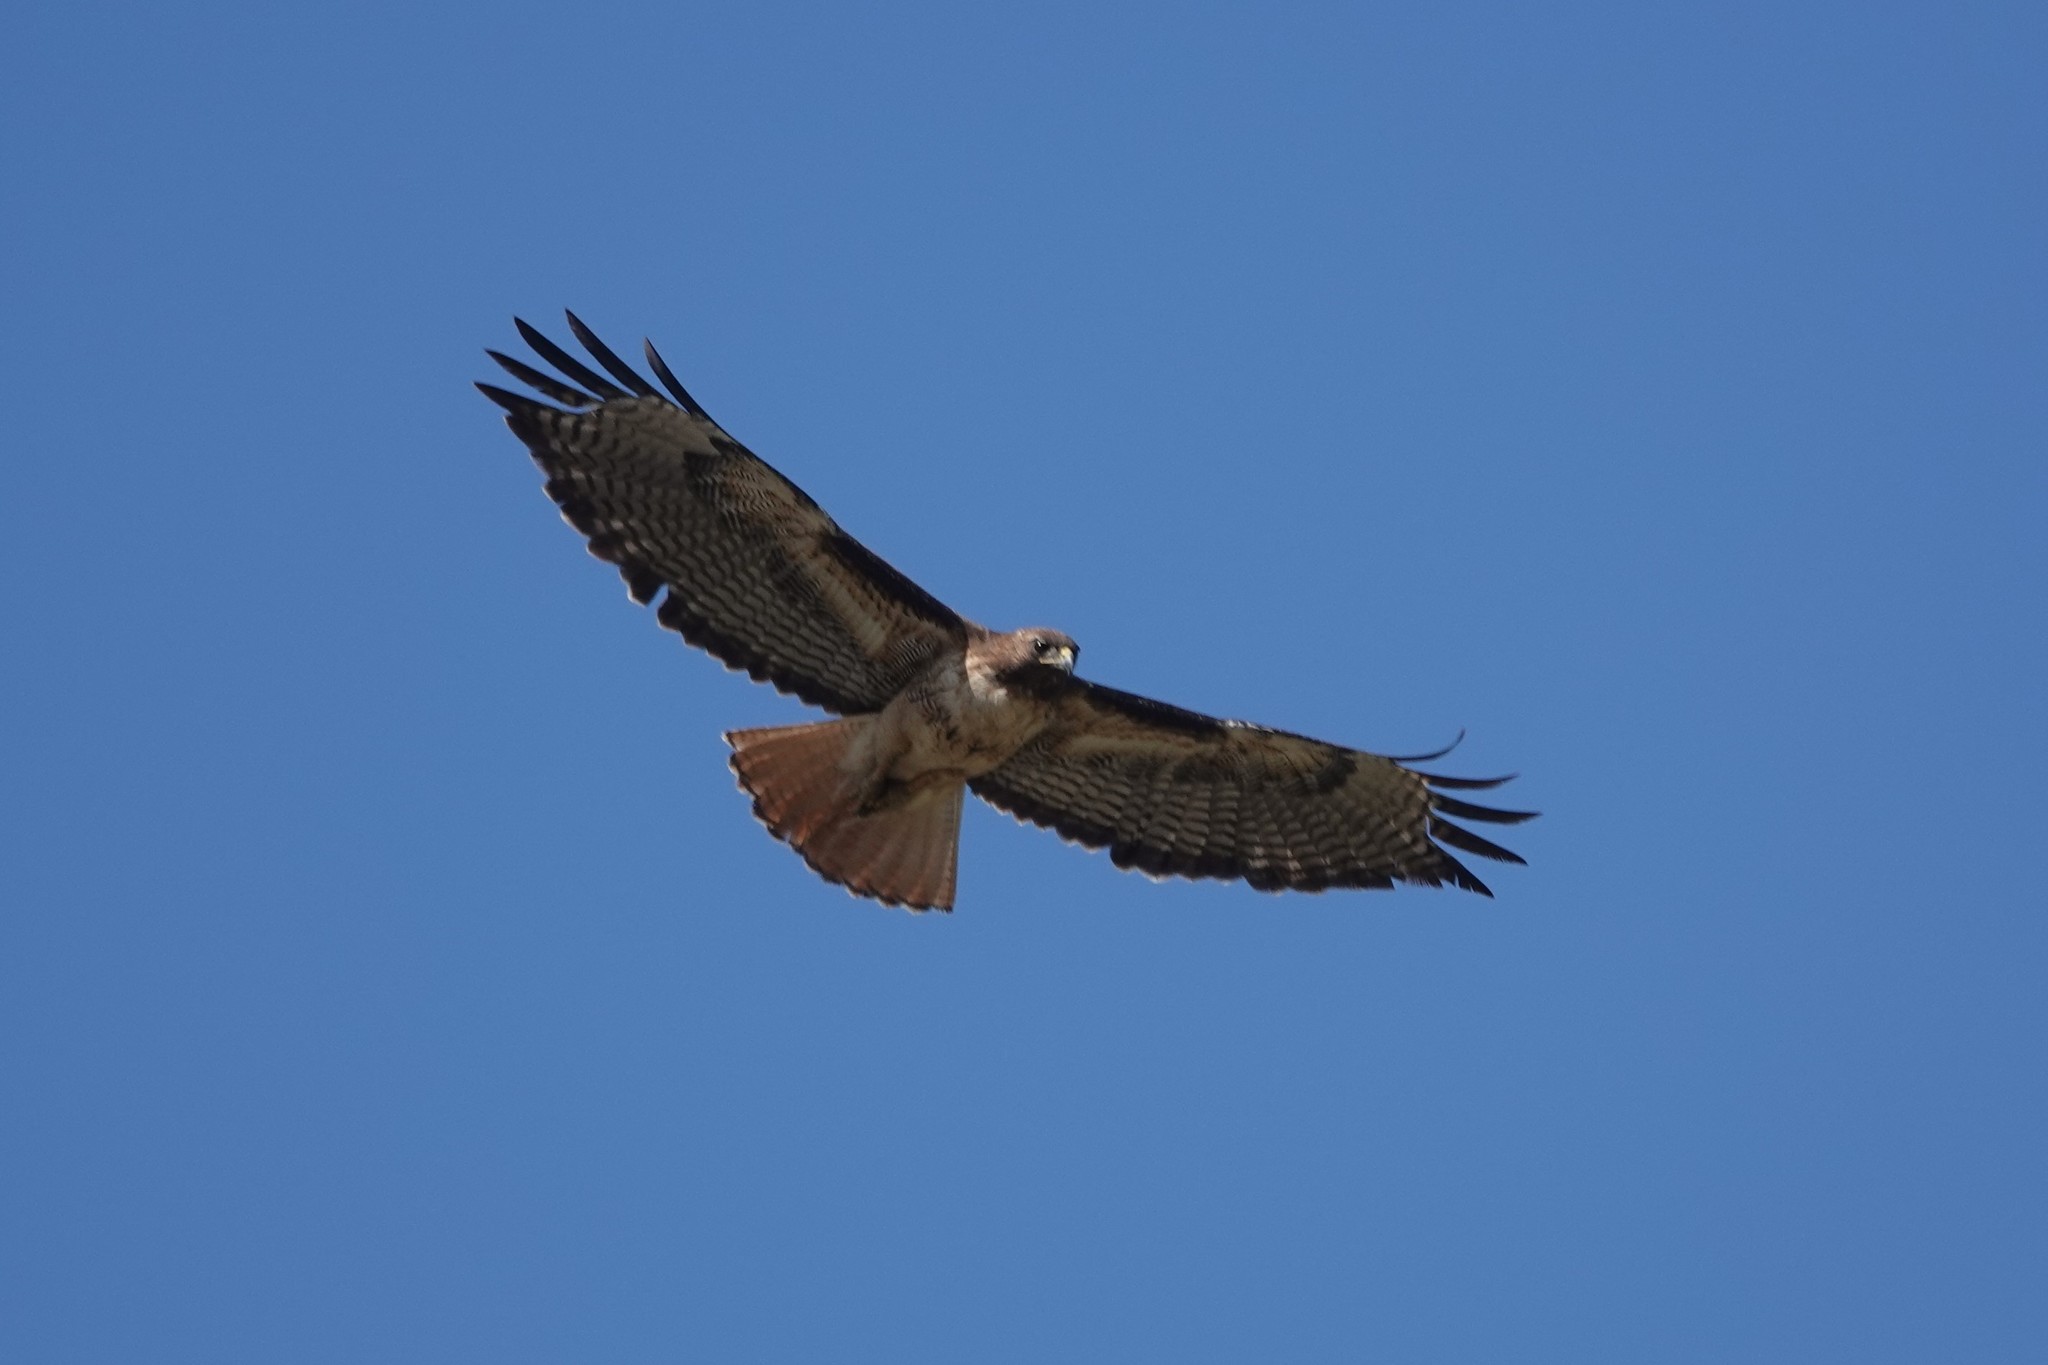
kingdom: Animalia
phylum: Chordata
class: Aves
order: Accipitriformes
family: Accipitridae
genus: Buteo
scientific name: Buteo jamaicensis
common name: Red-tailed hawk
